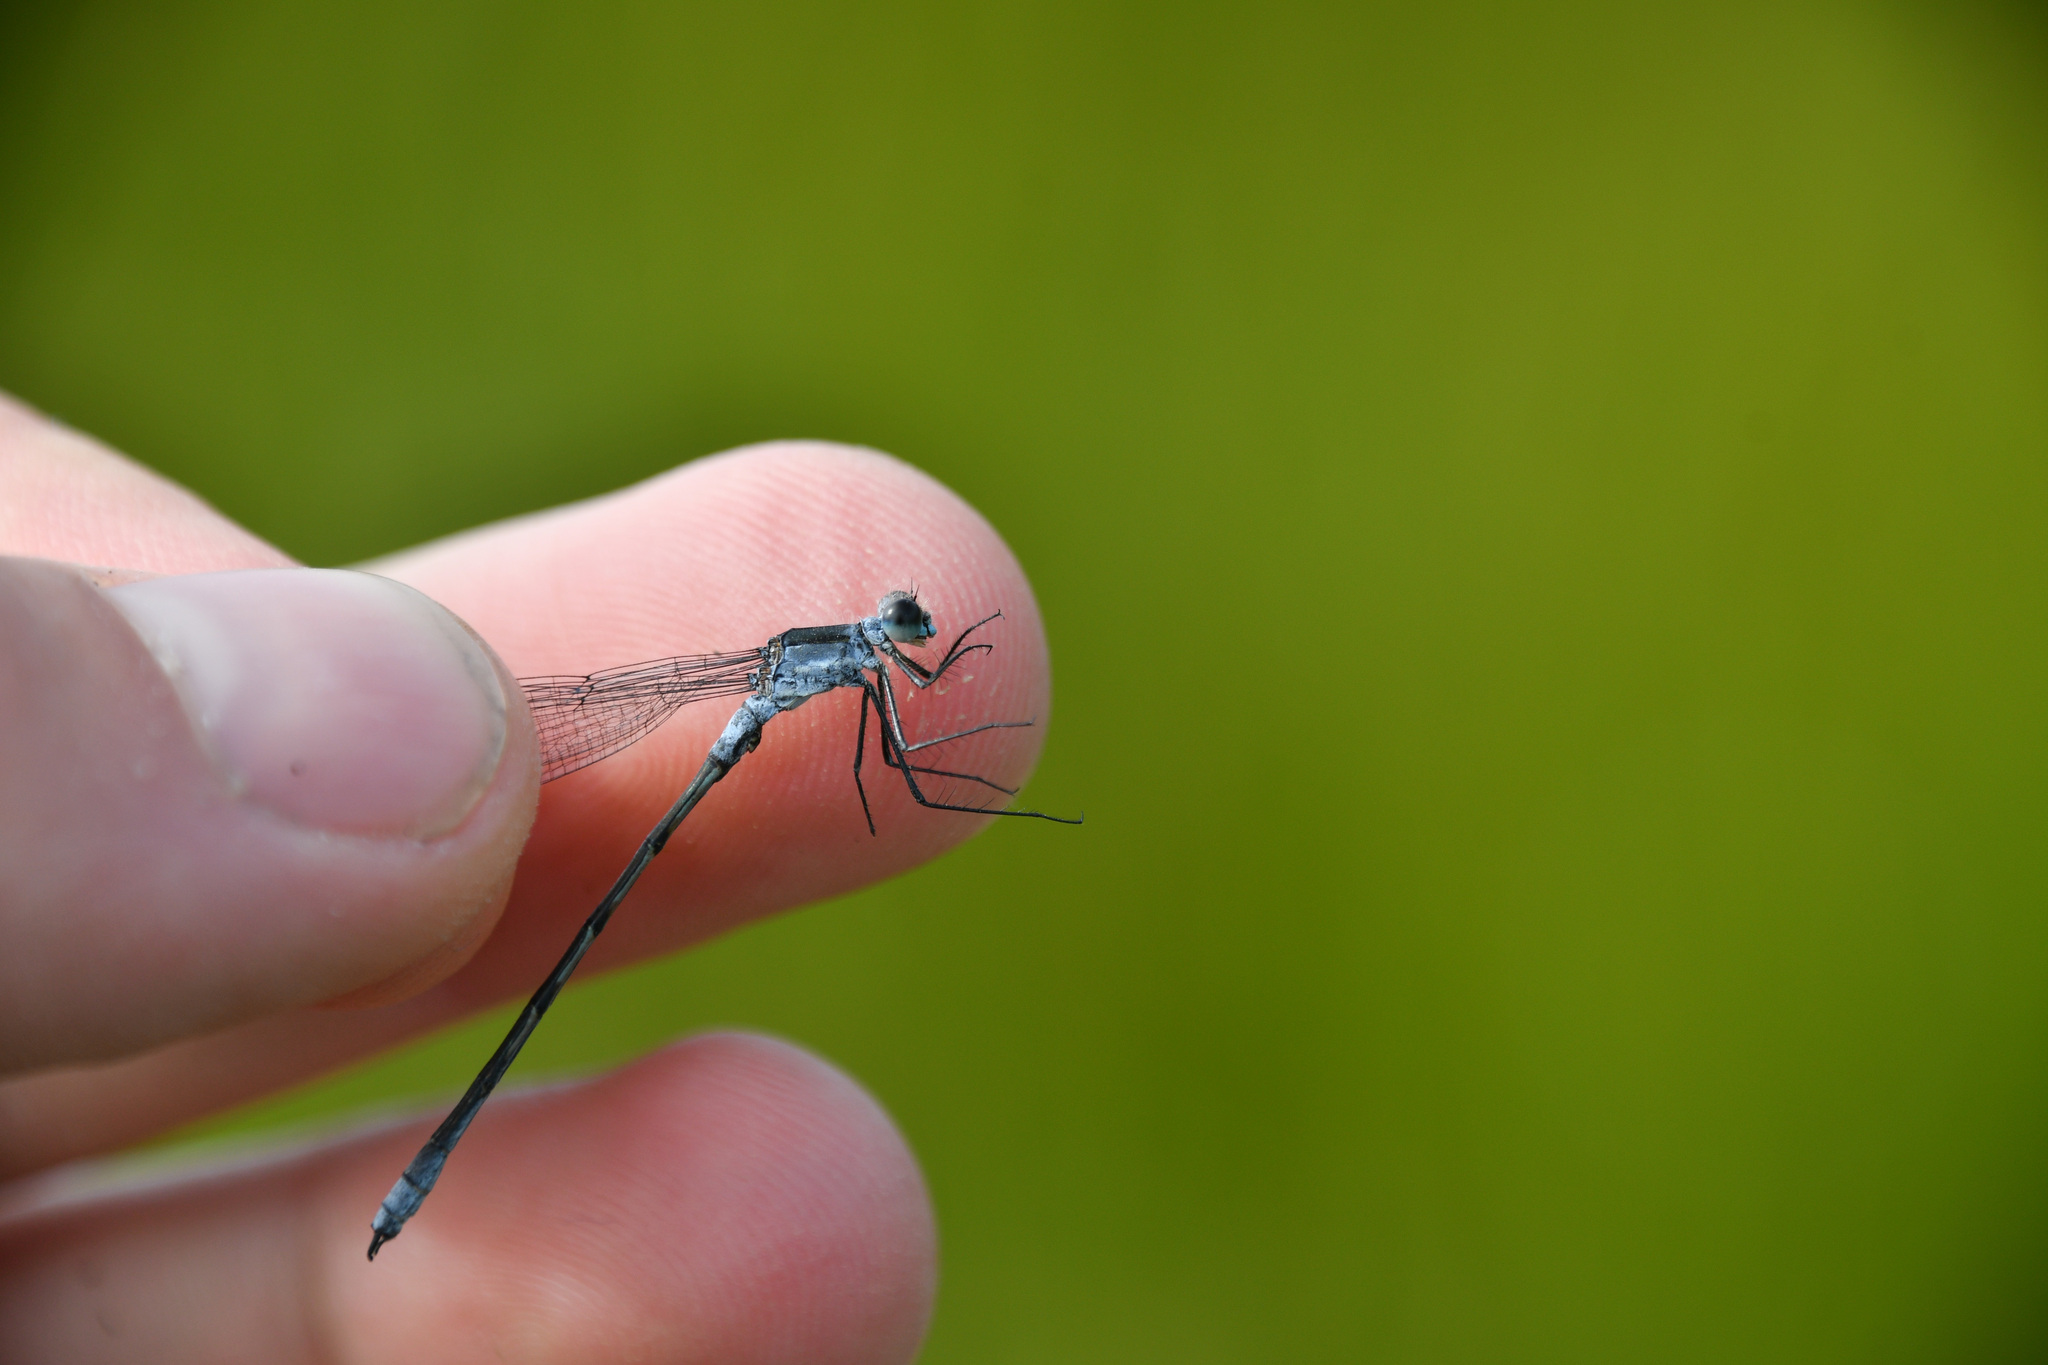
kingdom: Animalia
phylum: Arthropoda
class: Insecta
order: Odonata
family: Lestidae
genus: Lestes
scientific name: Lestes disjunctus
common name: Northern spreadwing
